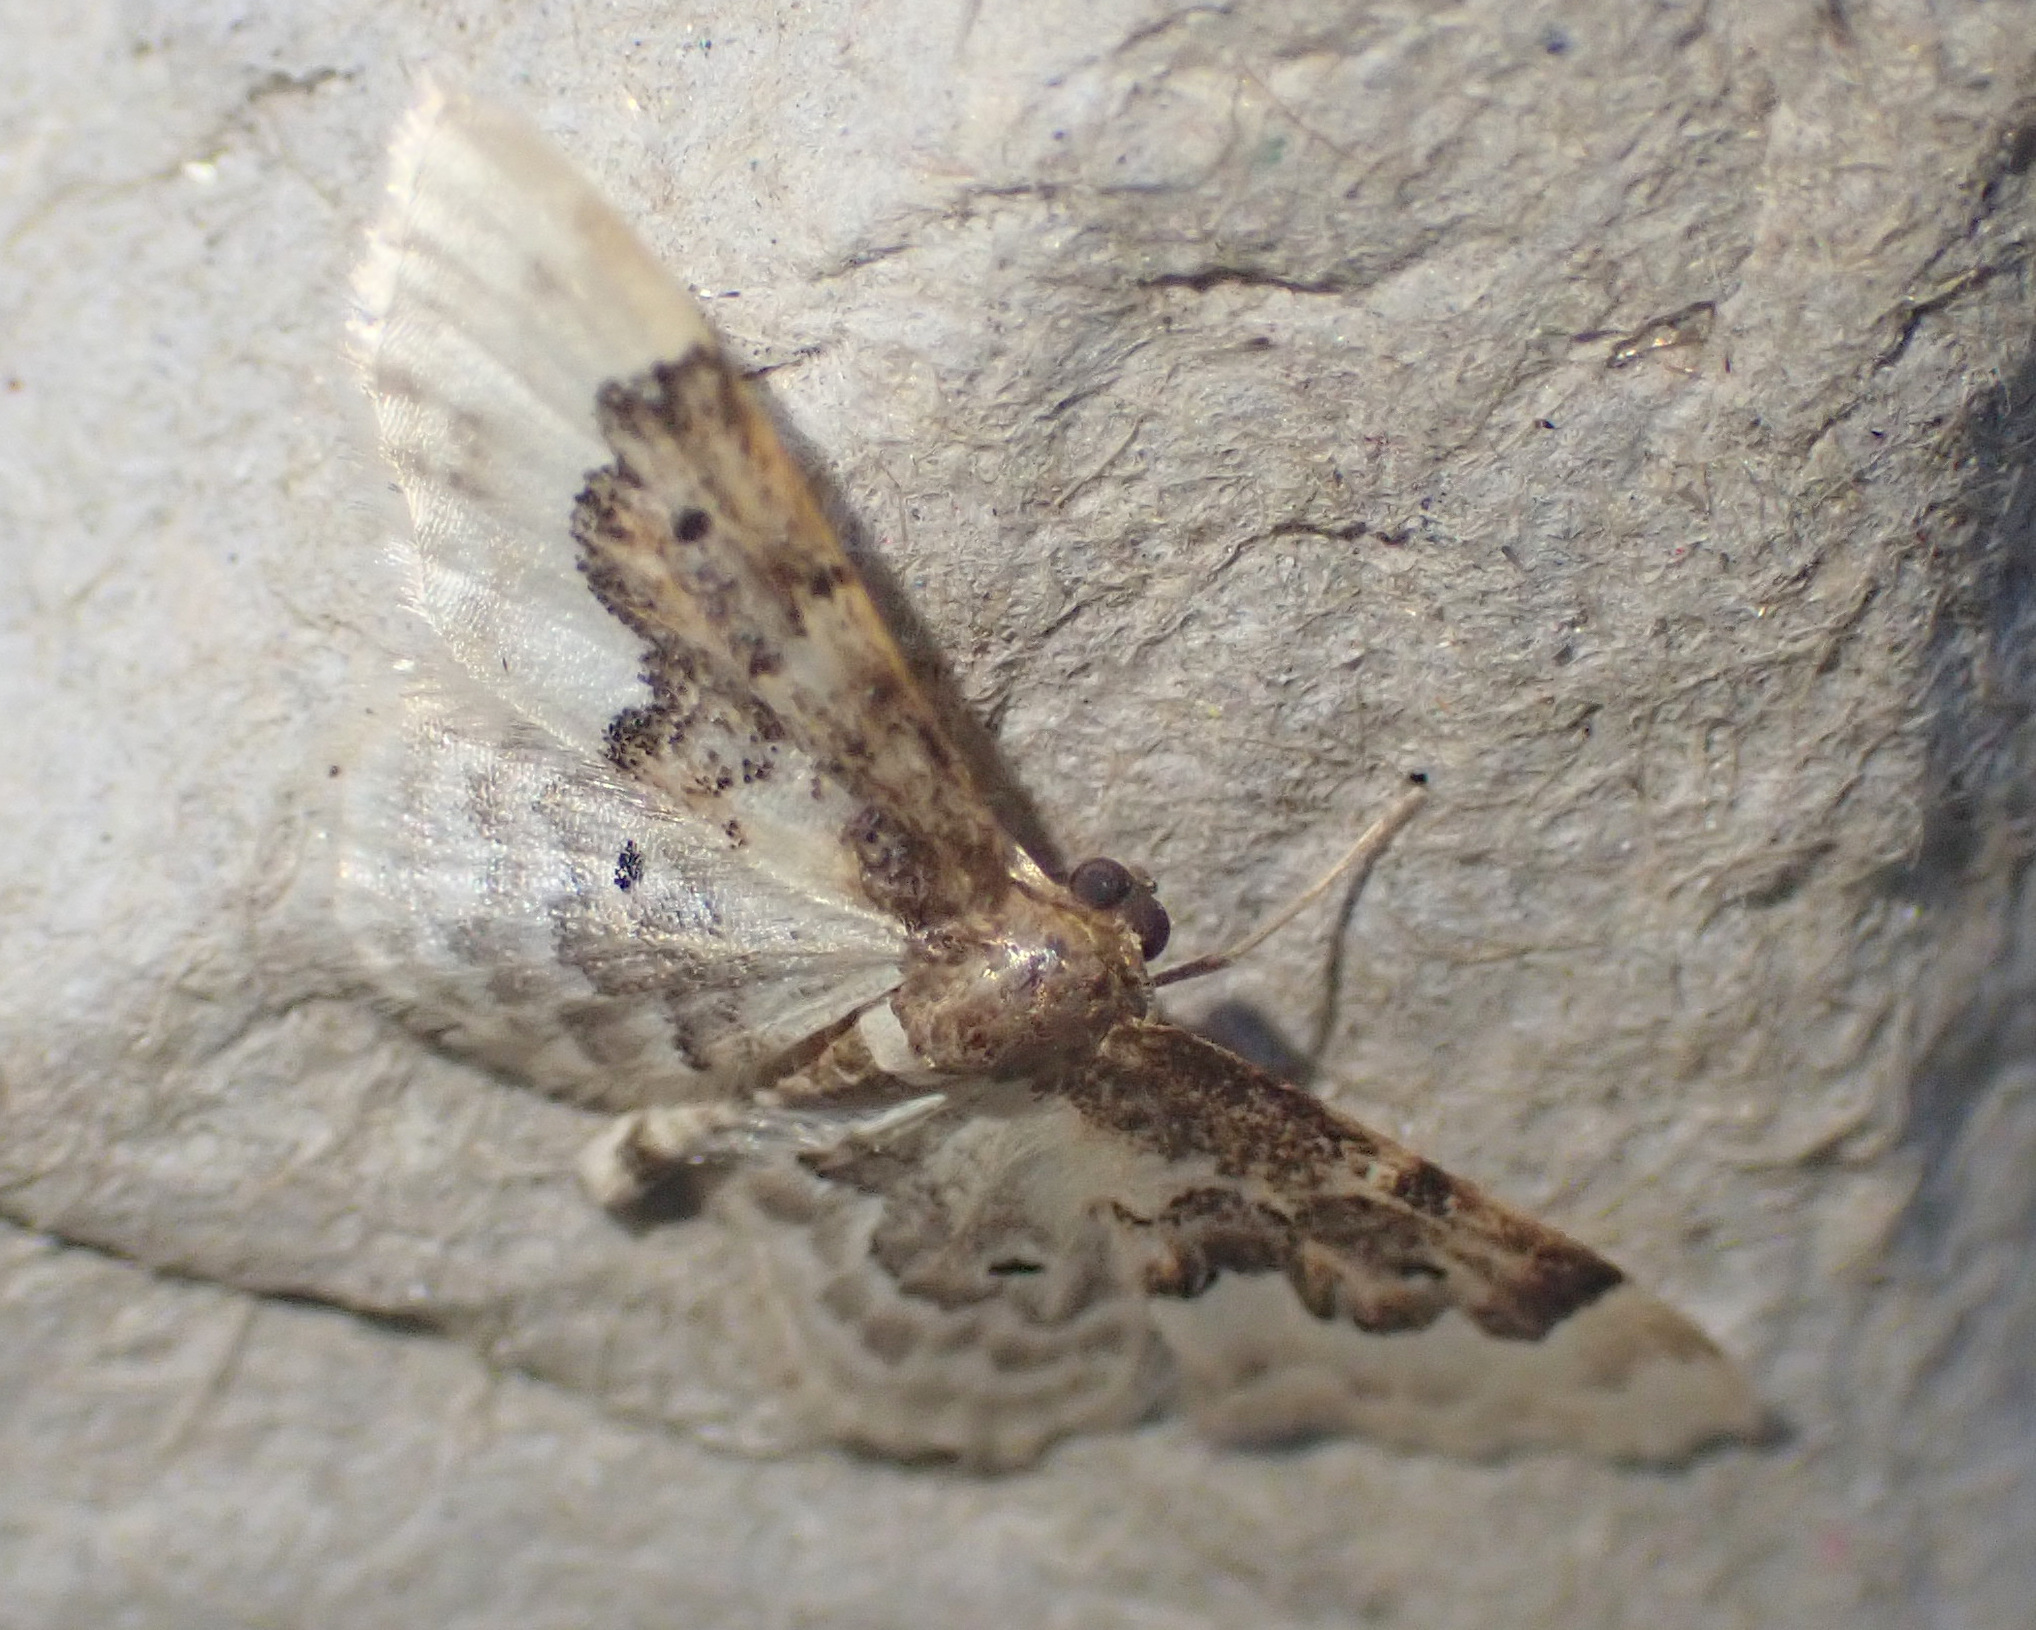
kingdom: Animalia
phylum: Arthropoda
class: Insecta
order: Lepidoptera
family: Geometridae
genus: Idaea
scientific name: Idaea rusticata
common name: Least carpet
